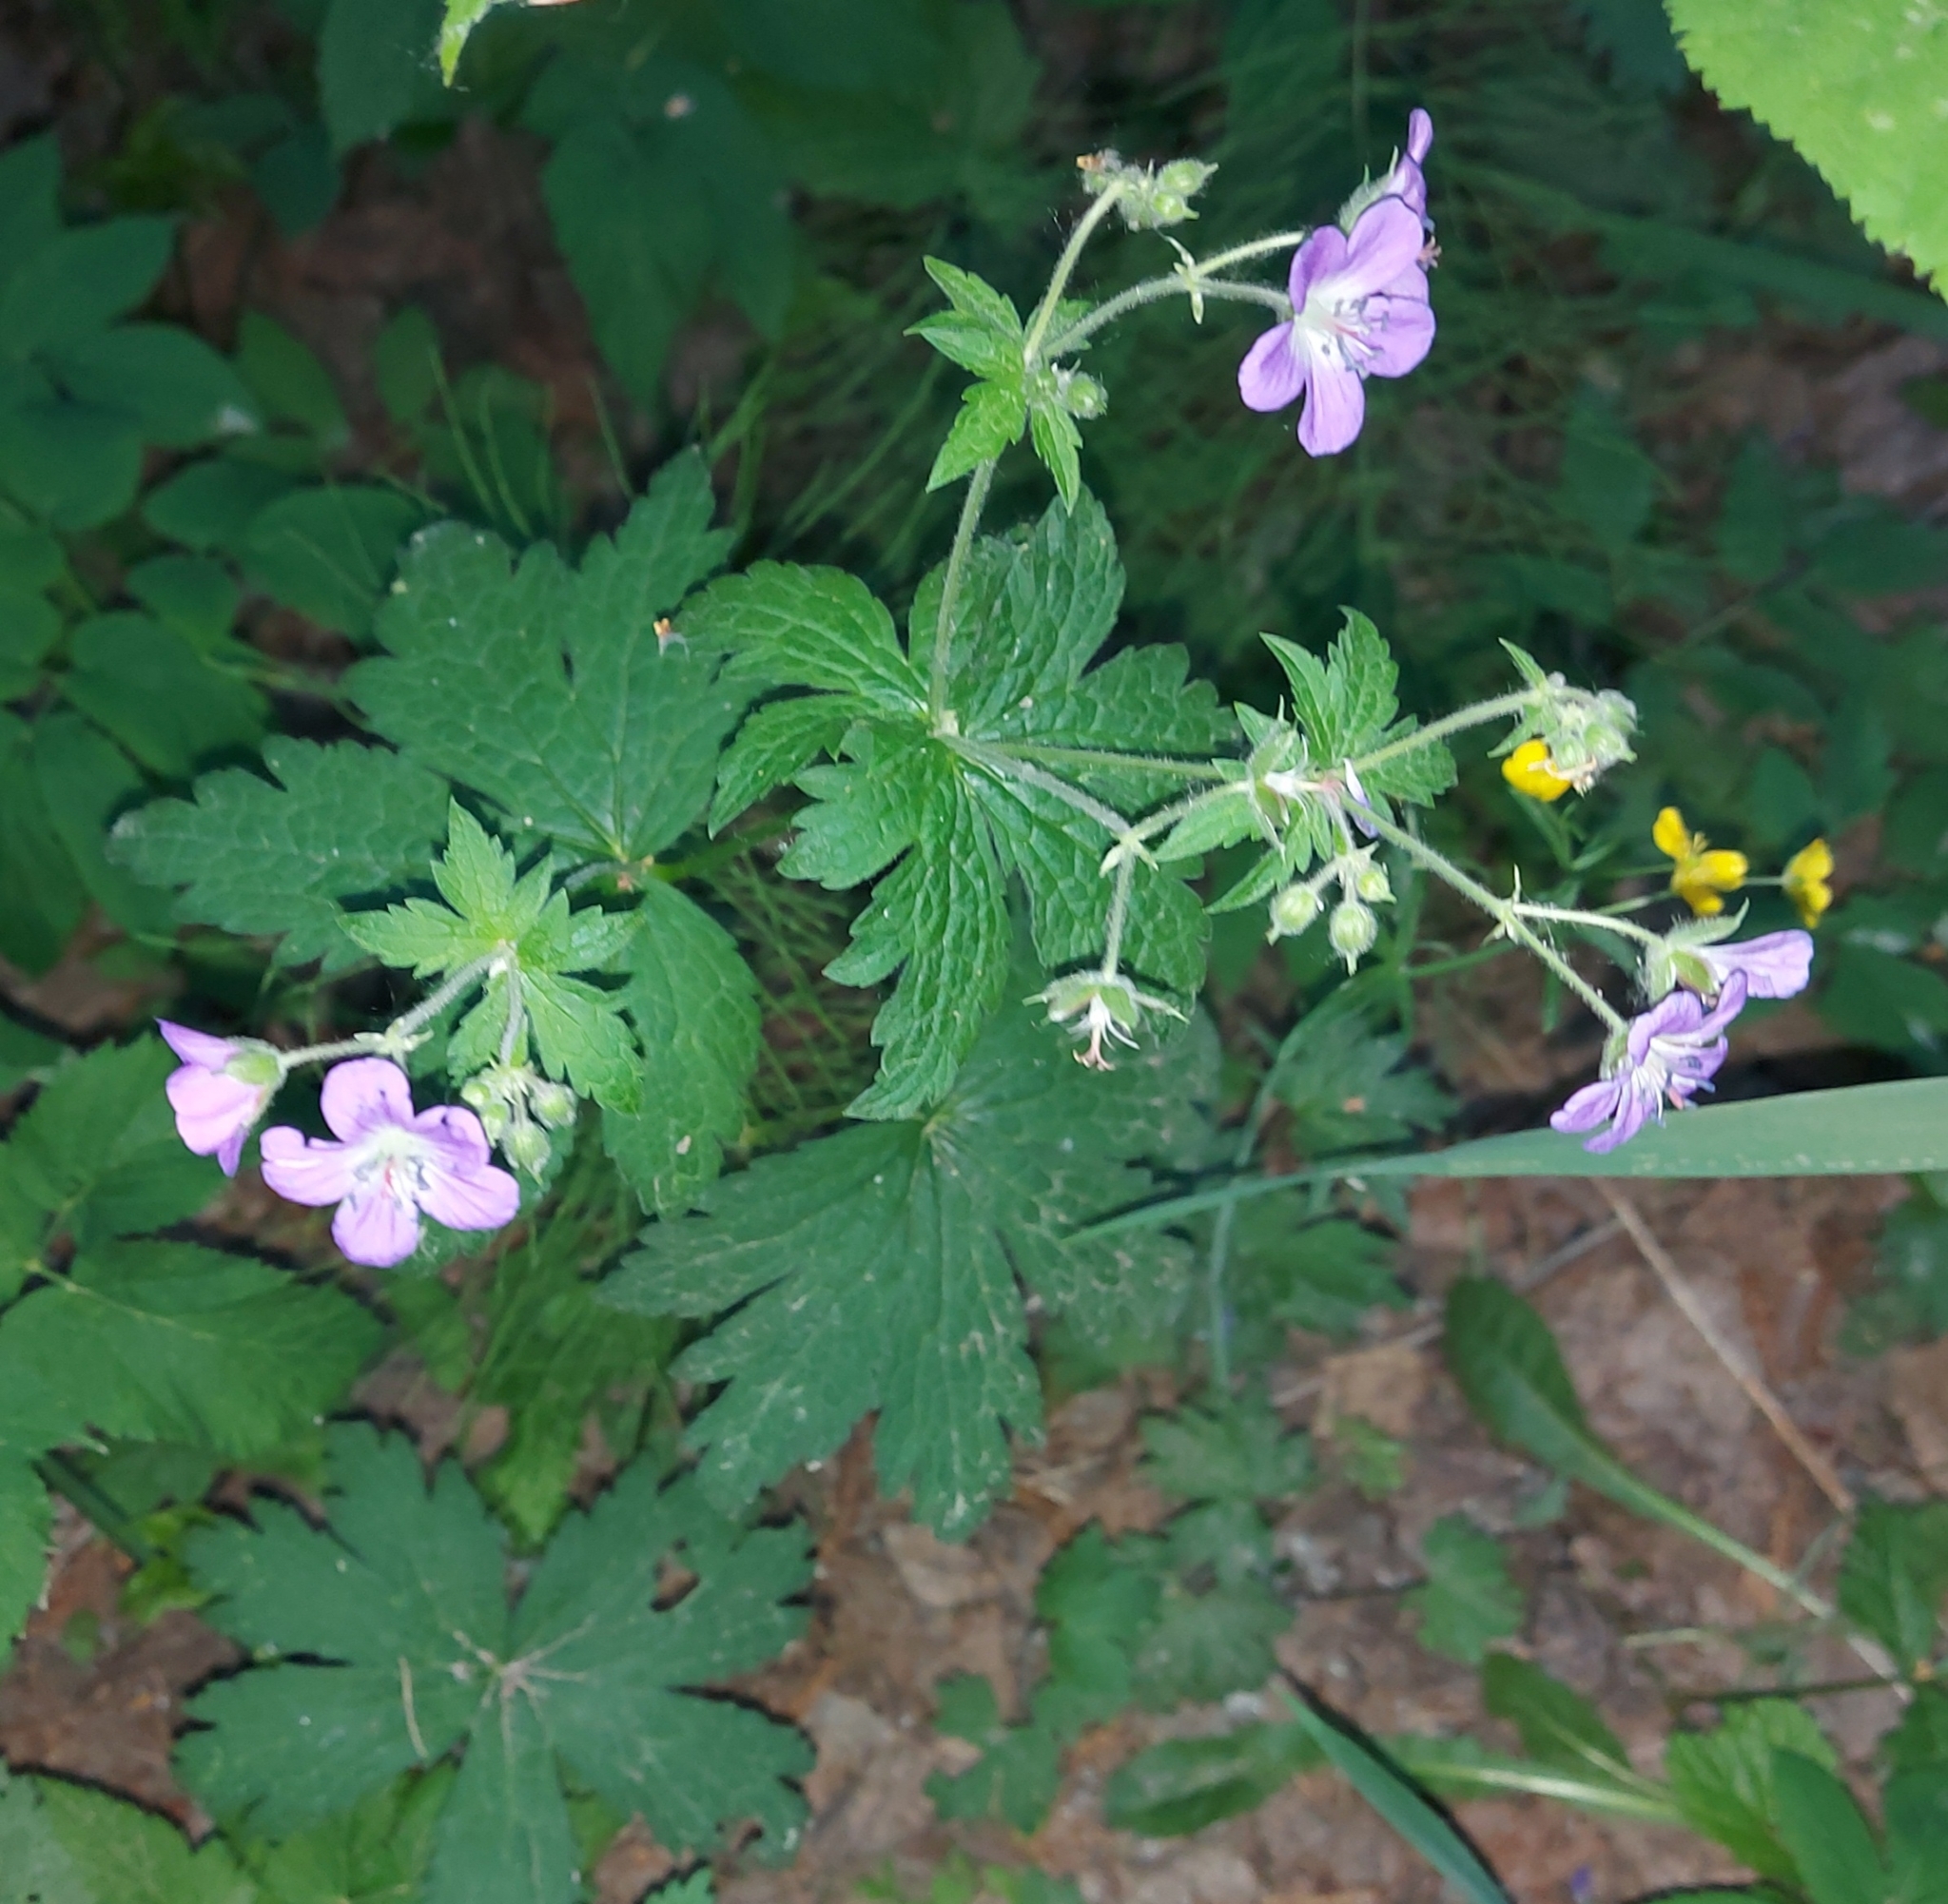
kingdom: Plantae
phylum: Tracheophyta
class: Magnoliopsida
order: Geraniales
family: Geraniaceae
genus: Geranium
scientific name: Geranium sylvaticum
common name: Wood crane's-bill
